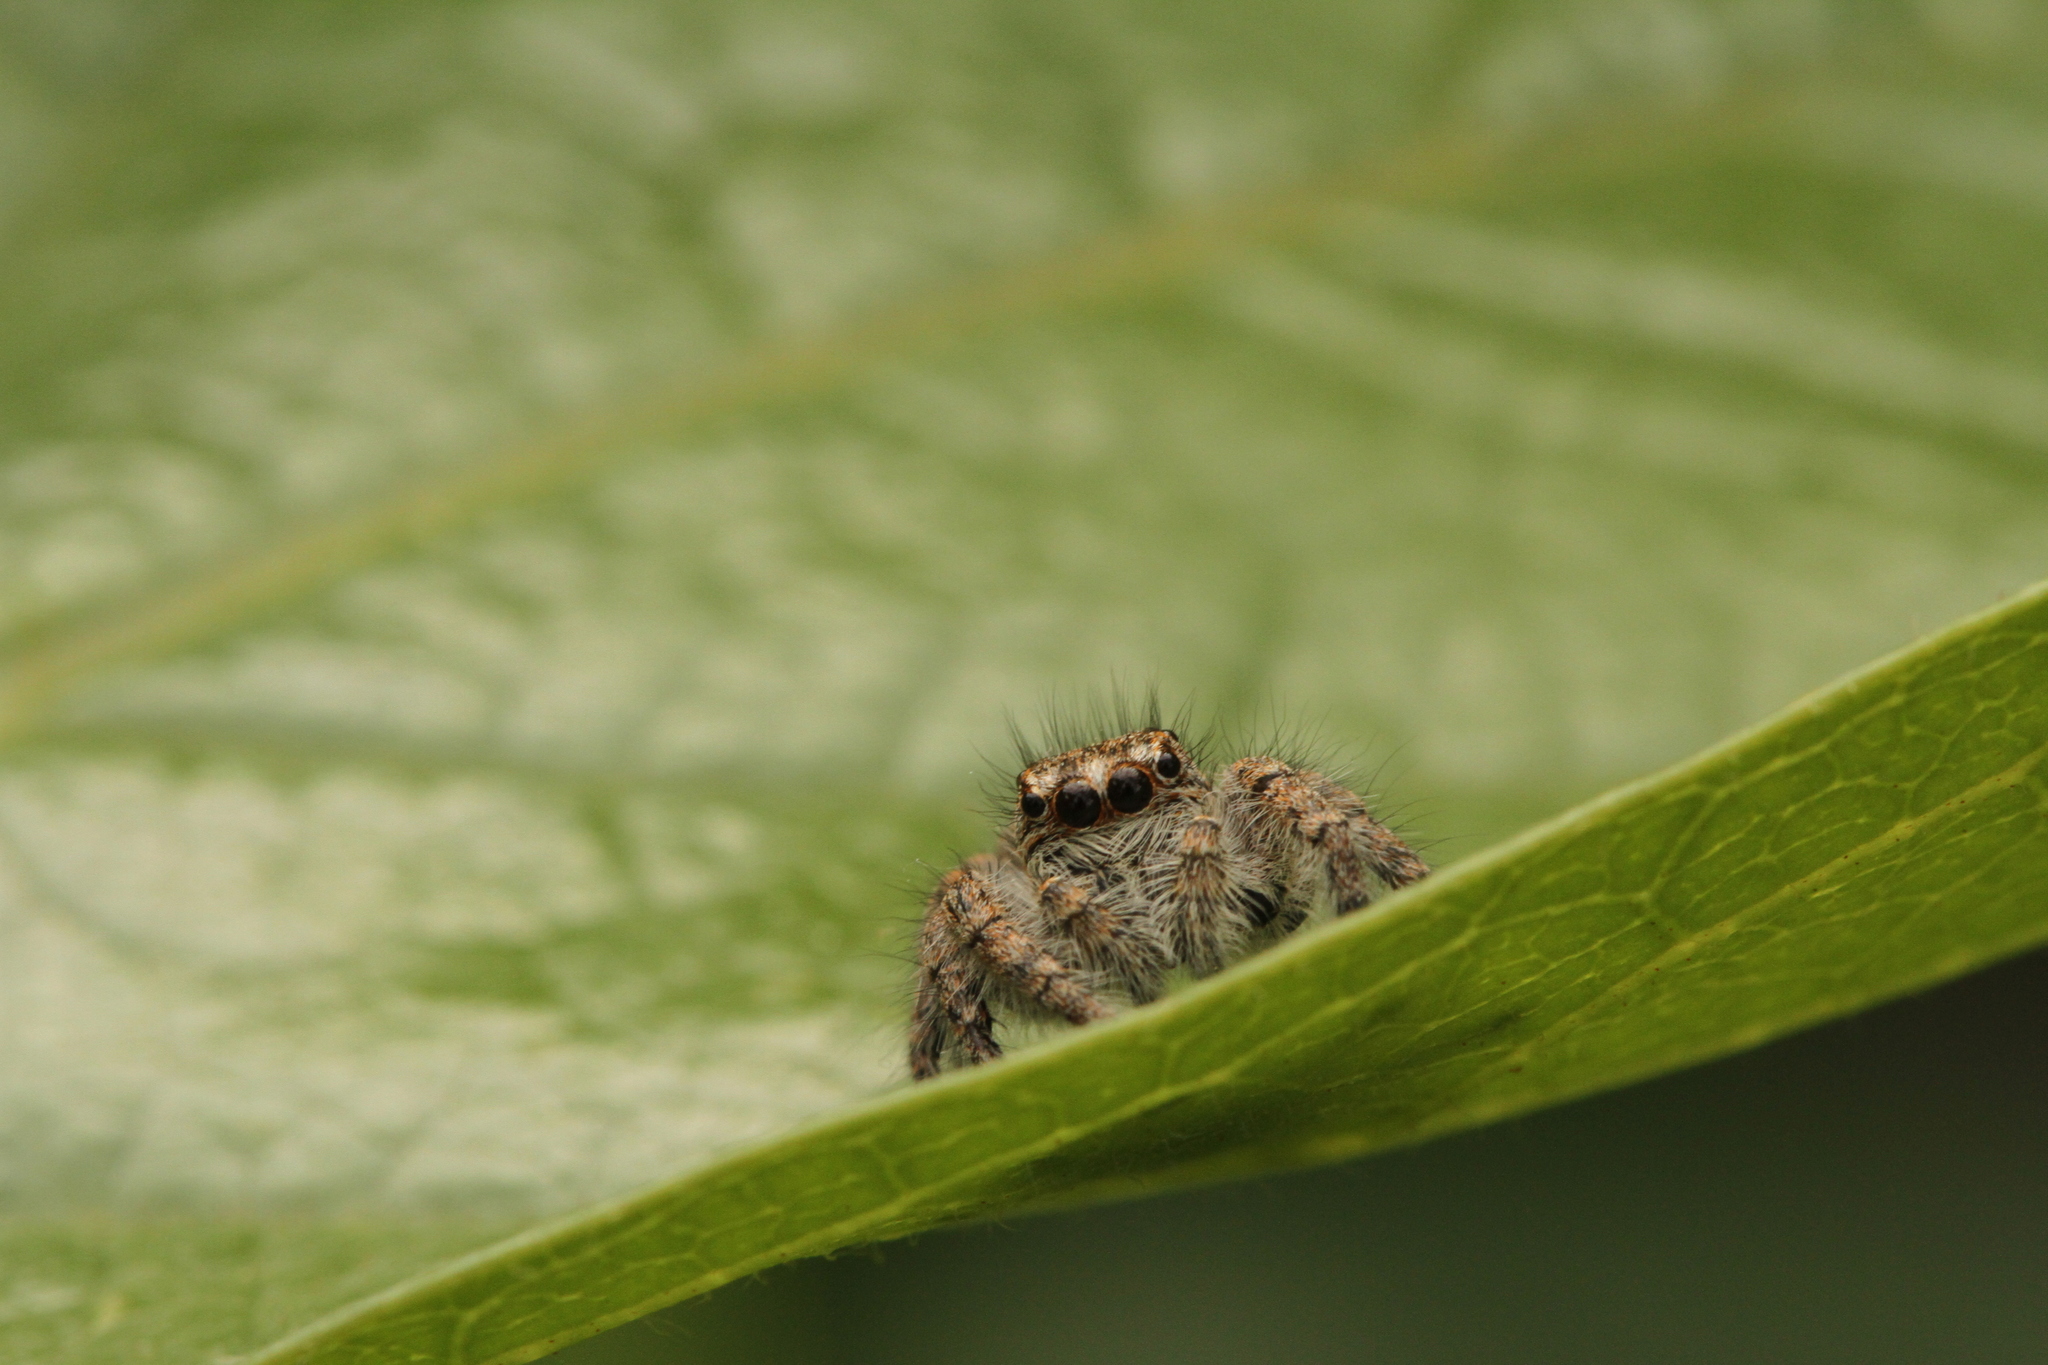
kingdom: Animalia
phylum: Arthropoda
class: Arachnida
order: Araneae
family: Salticidae
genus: Philaeus
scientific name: Philaeus chrysops
